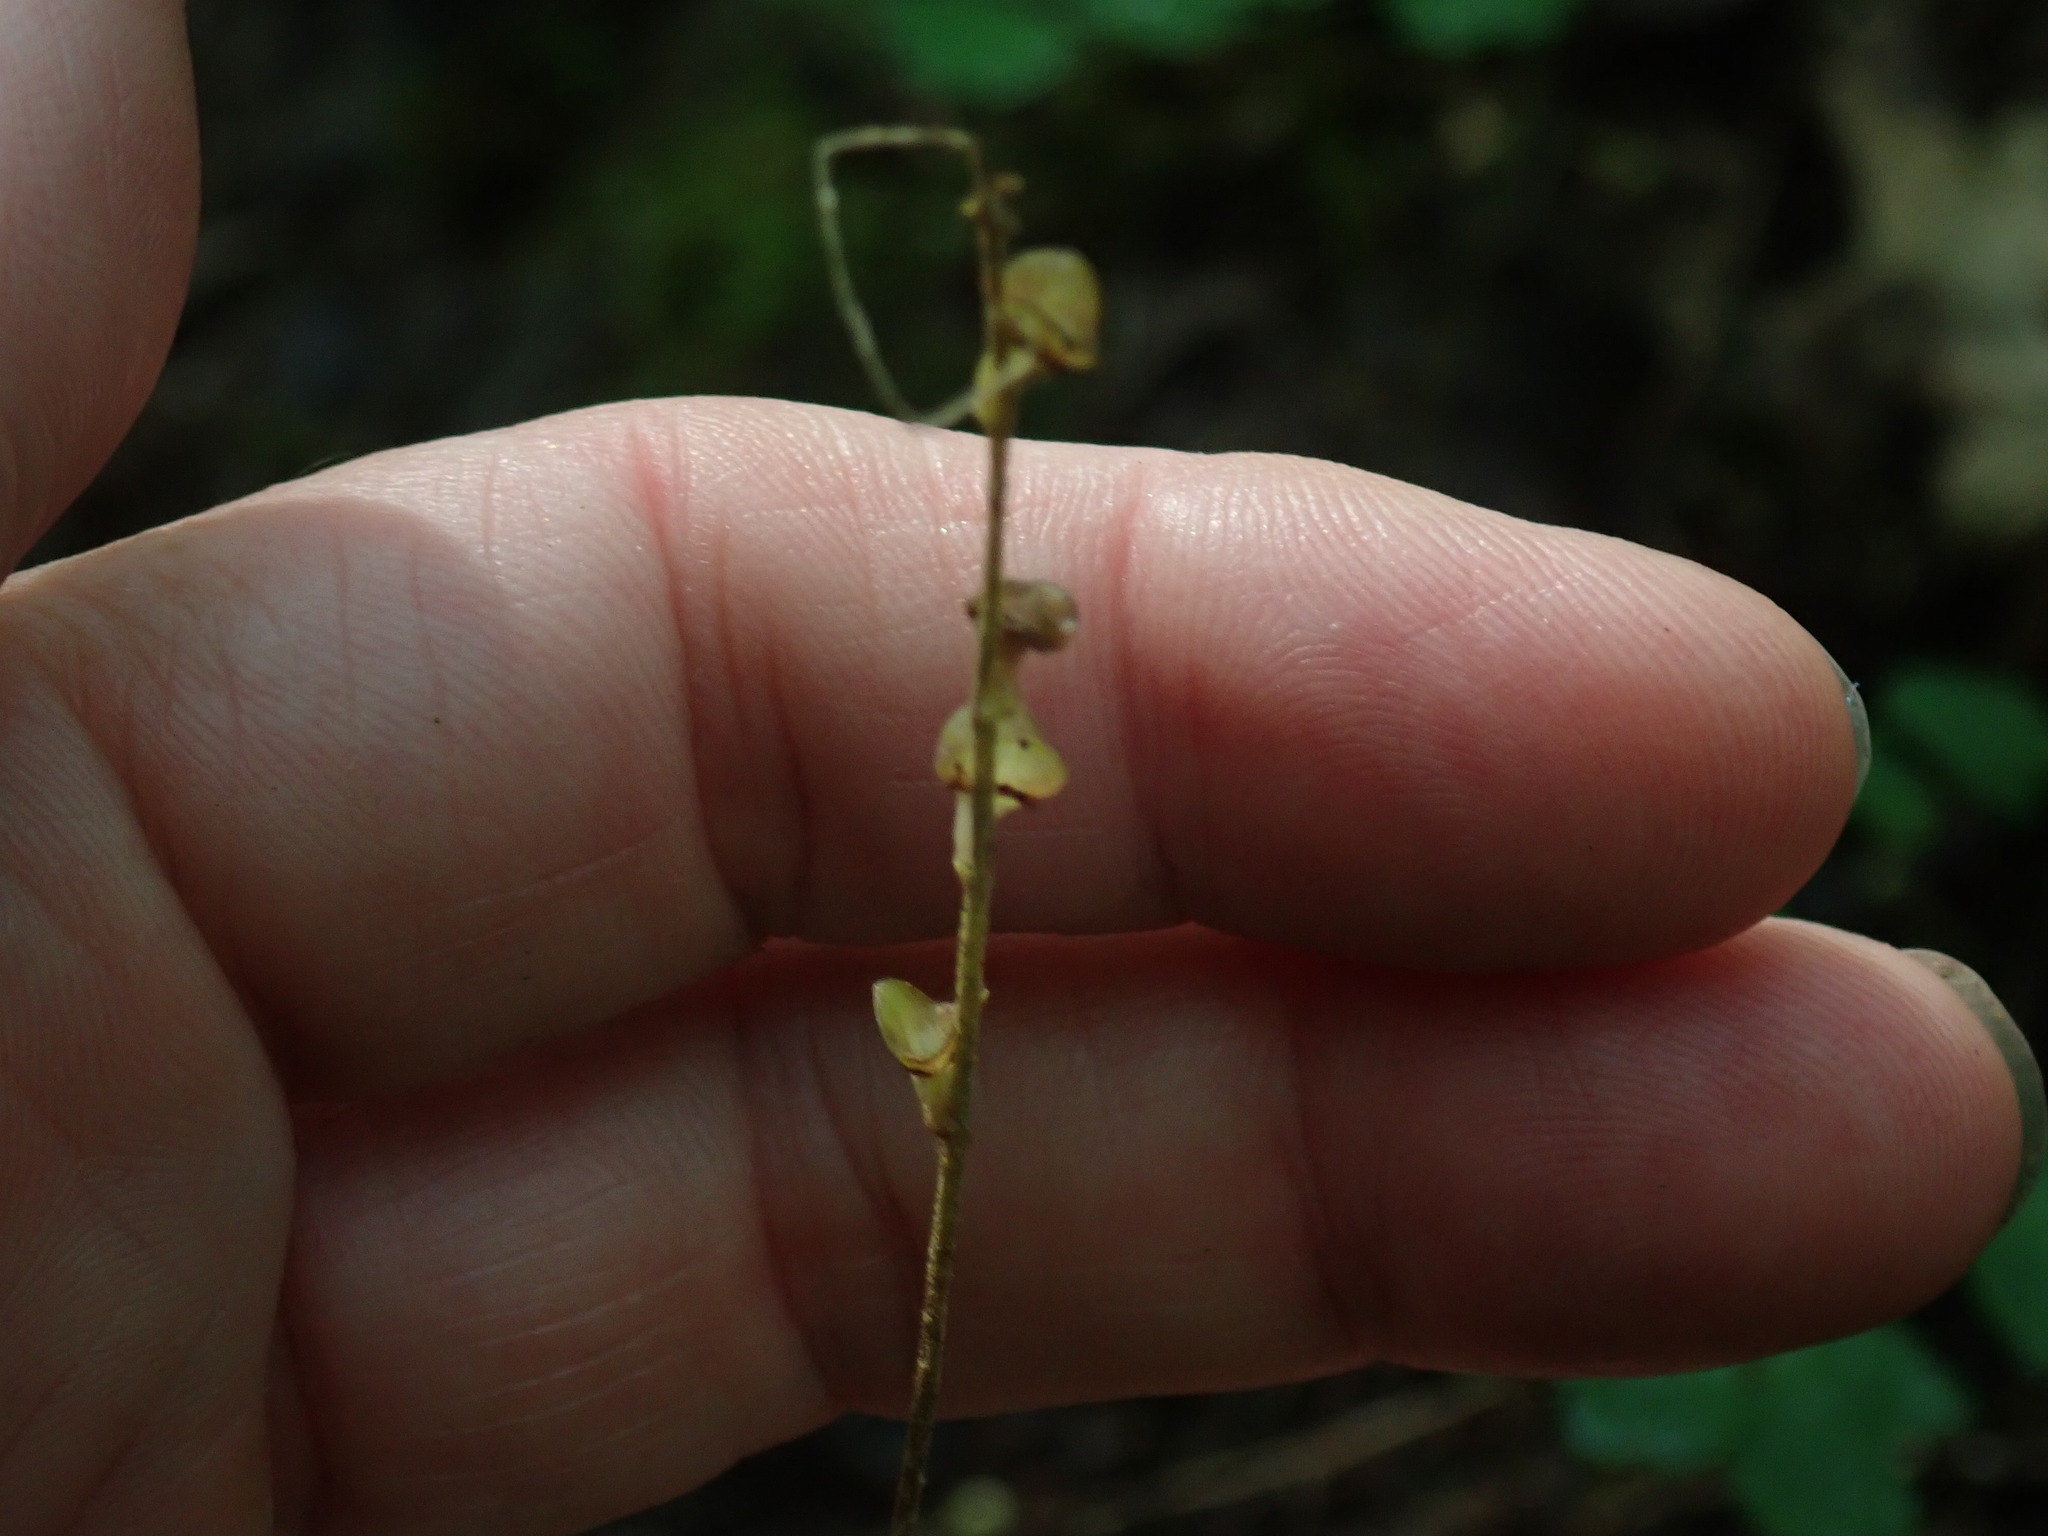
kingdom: Plantae
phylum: Tracheophyta
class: Magnoliopsida
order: Saxifragales
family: Saxifragaceae
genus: Mitella
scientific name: Mitella diphylla
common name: Coolwort
